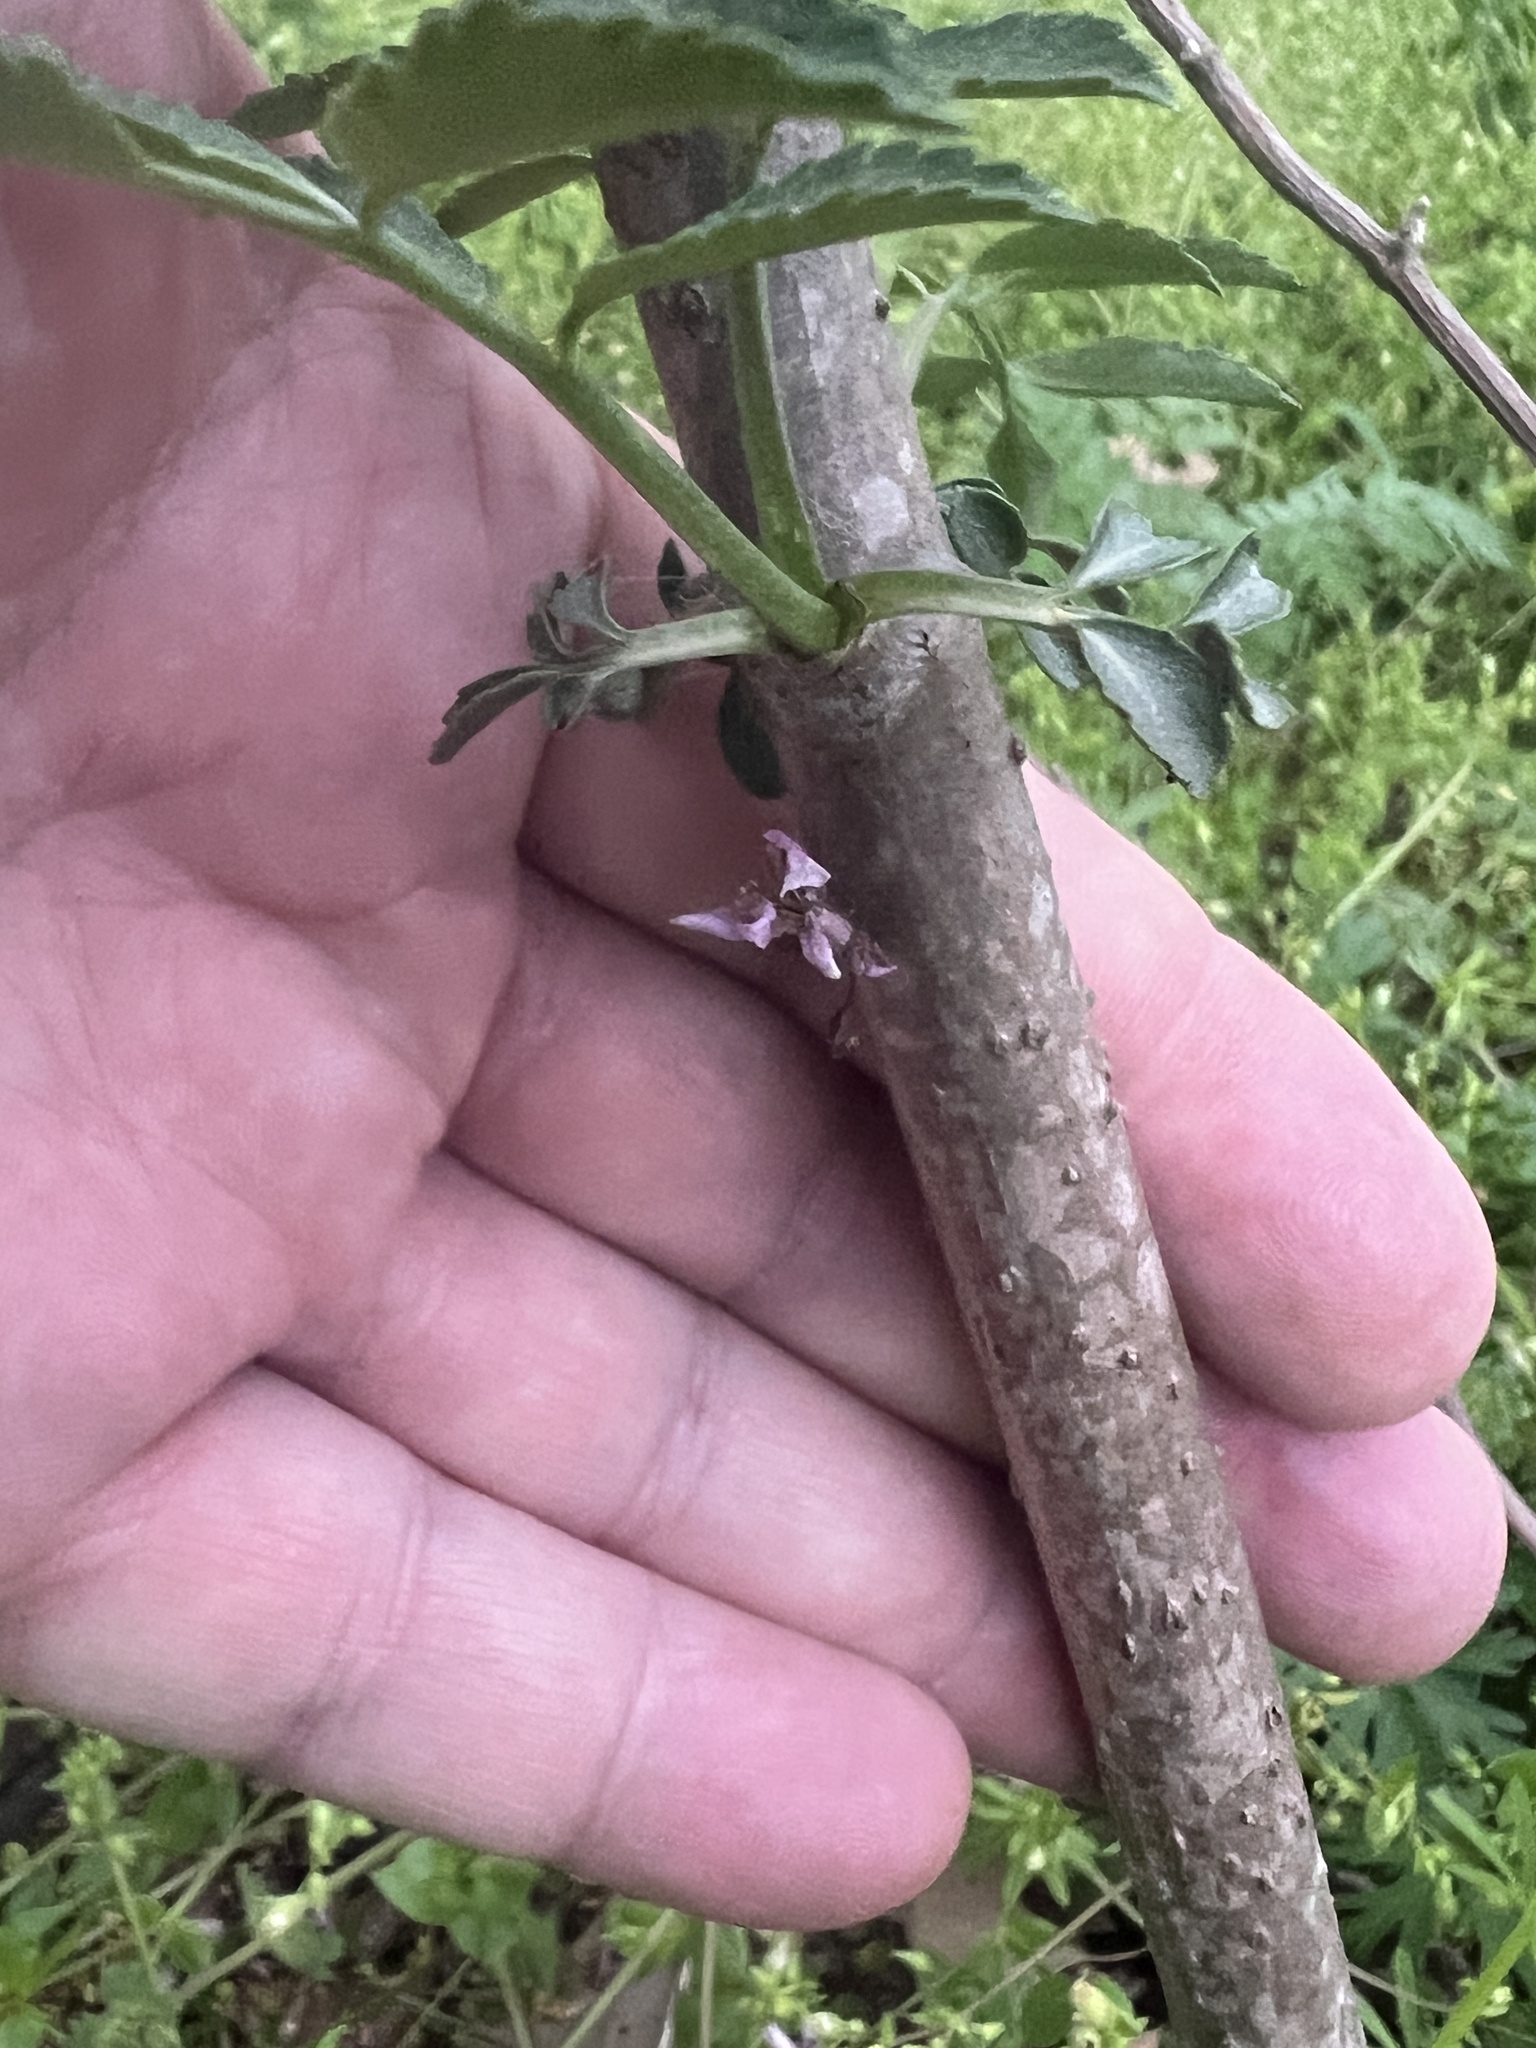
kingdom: Plantae
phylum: Tracheophyta
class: Magnoliopsida
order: Dipsacales
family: Viburnaceae
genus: Sambucus
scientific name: Sambucus canadensis
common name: American elder
